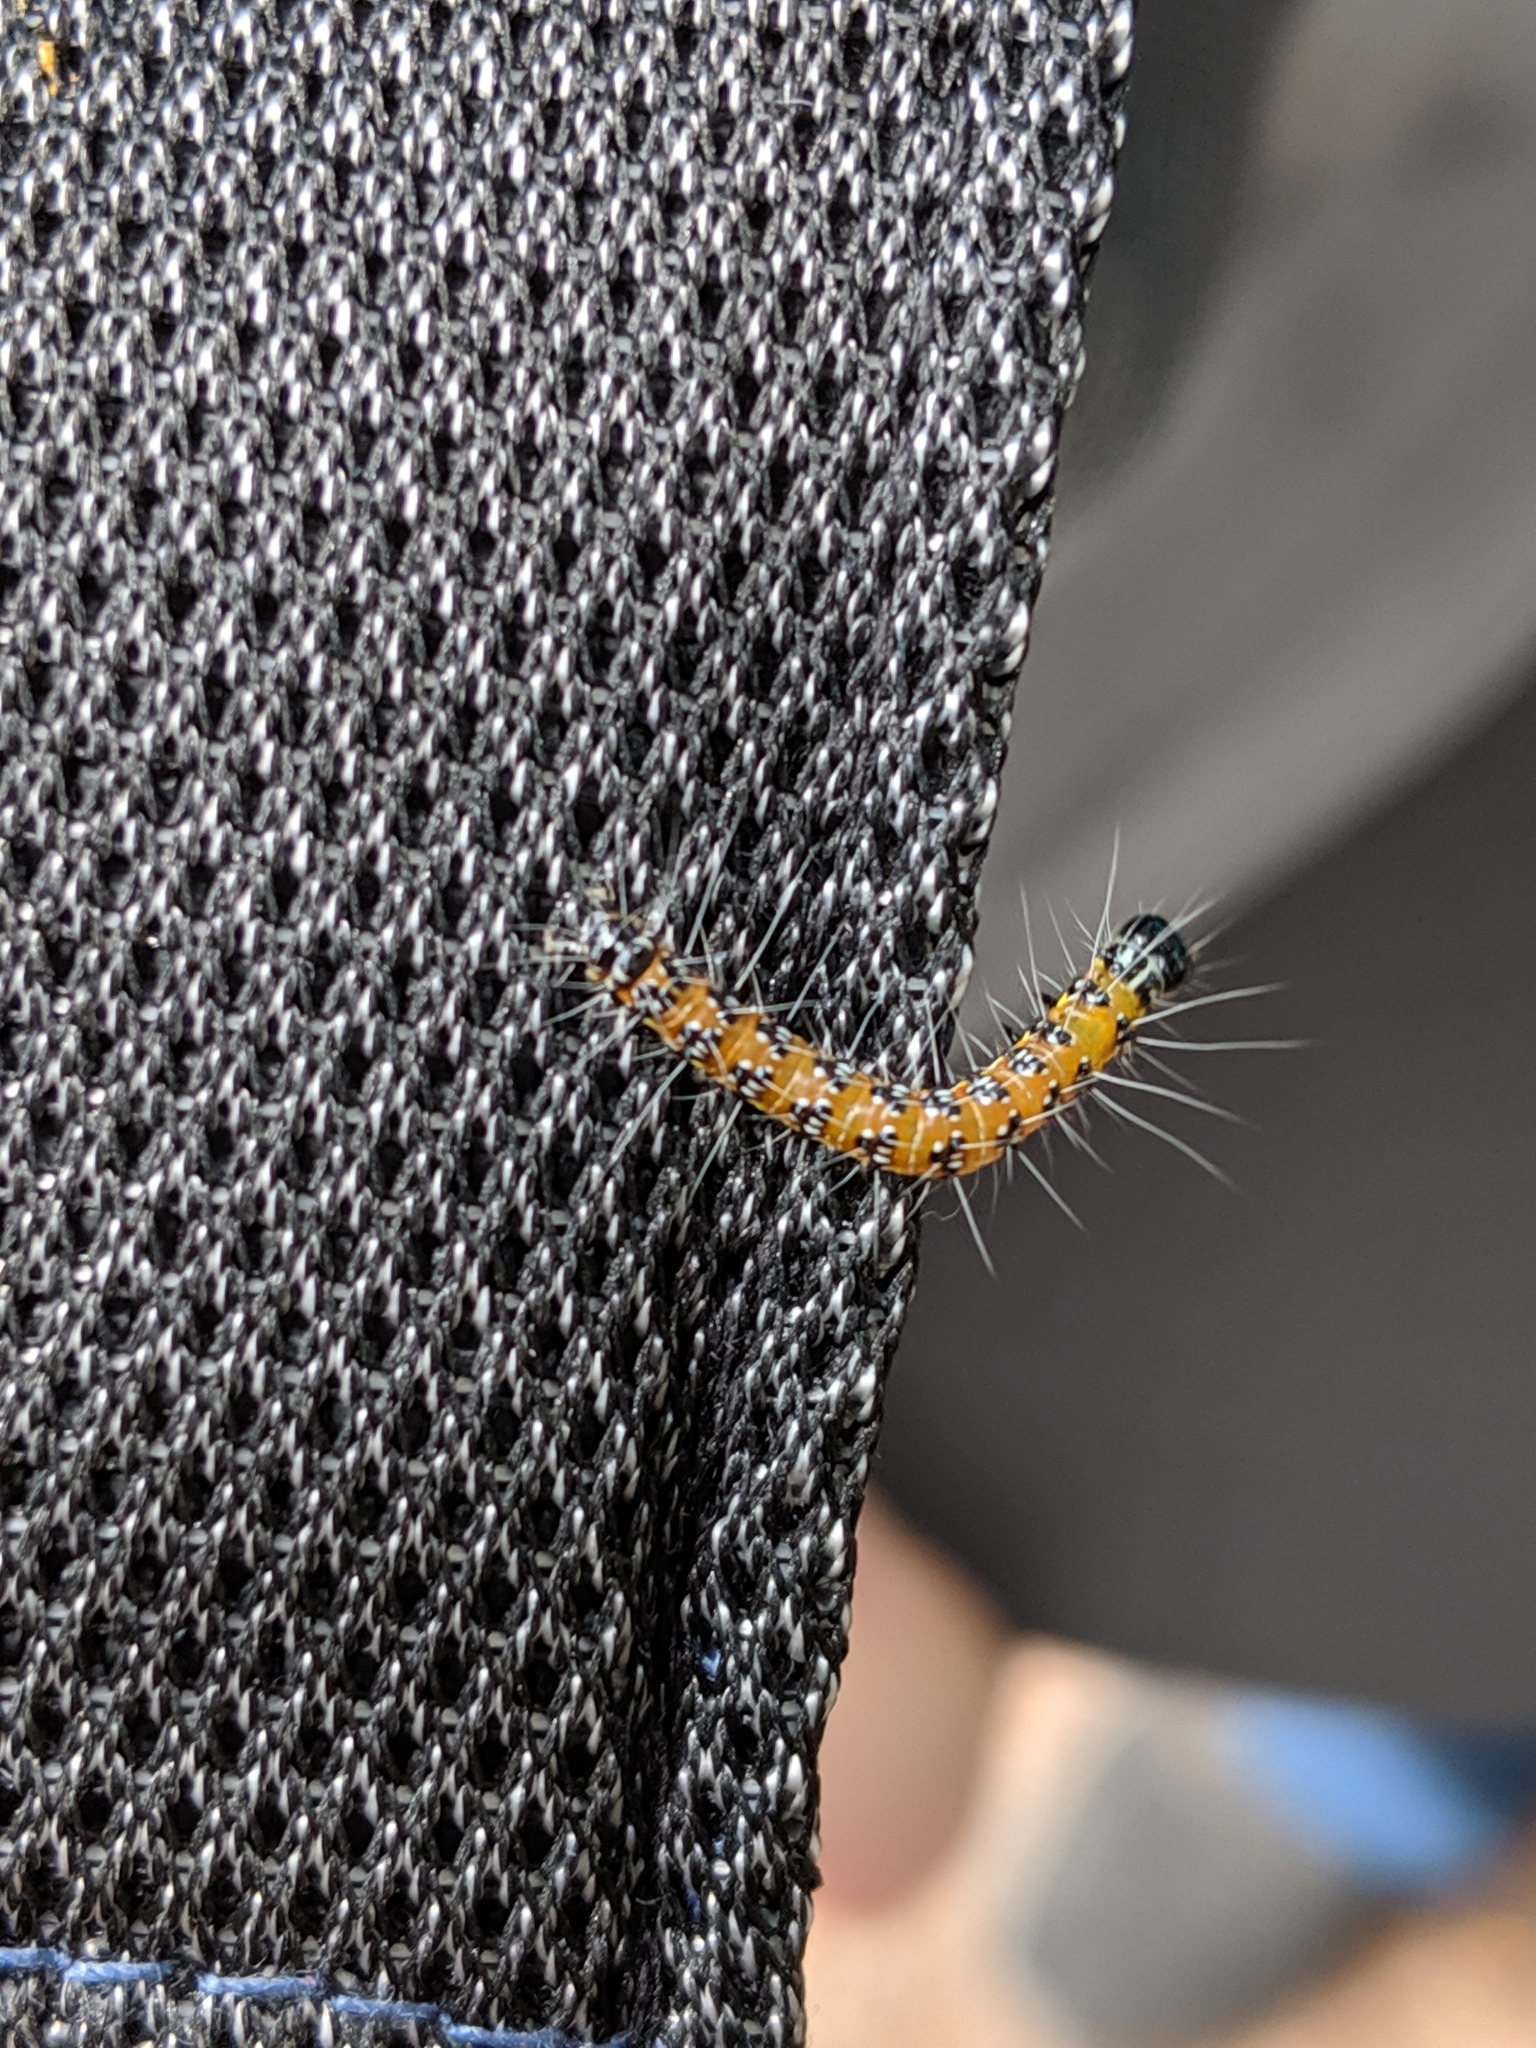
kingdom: Animalia
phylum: Arthropoda
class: Insecta
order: Lepidoptera
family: Crambidae
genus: Uresiphita
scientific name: Uresiphita reversalis
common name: Genista broom moth
